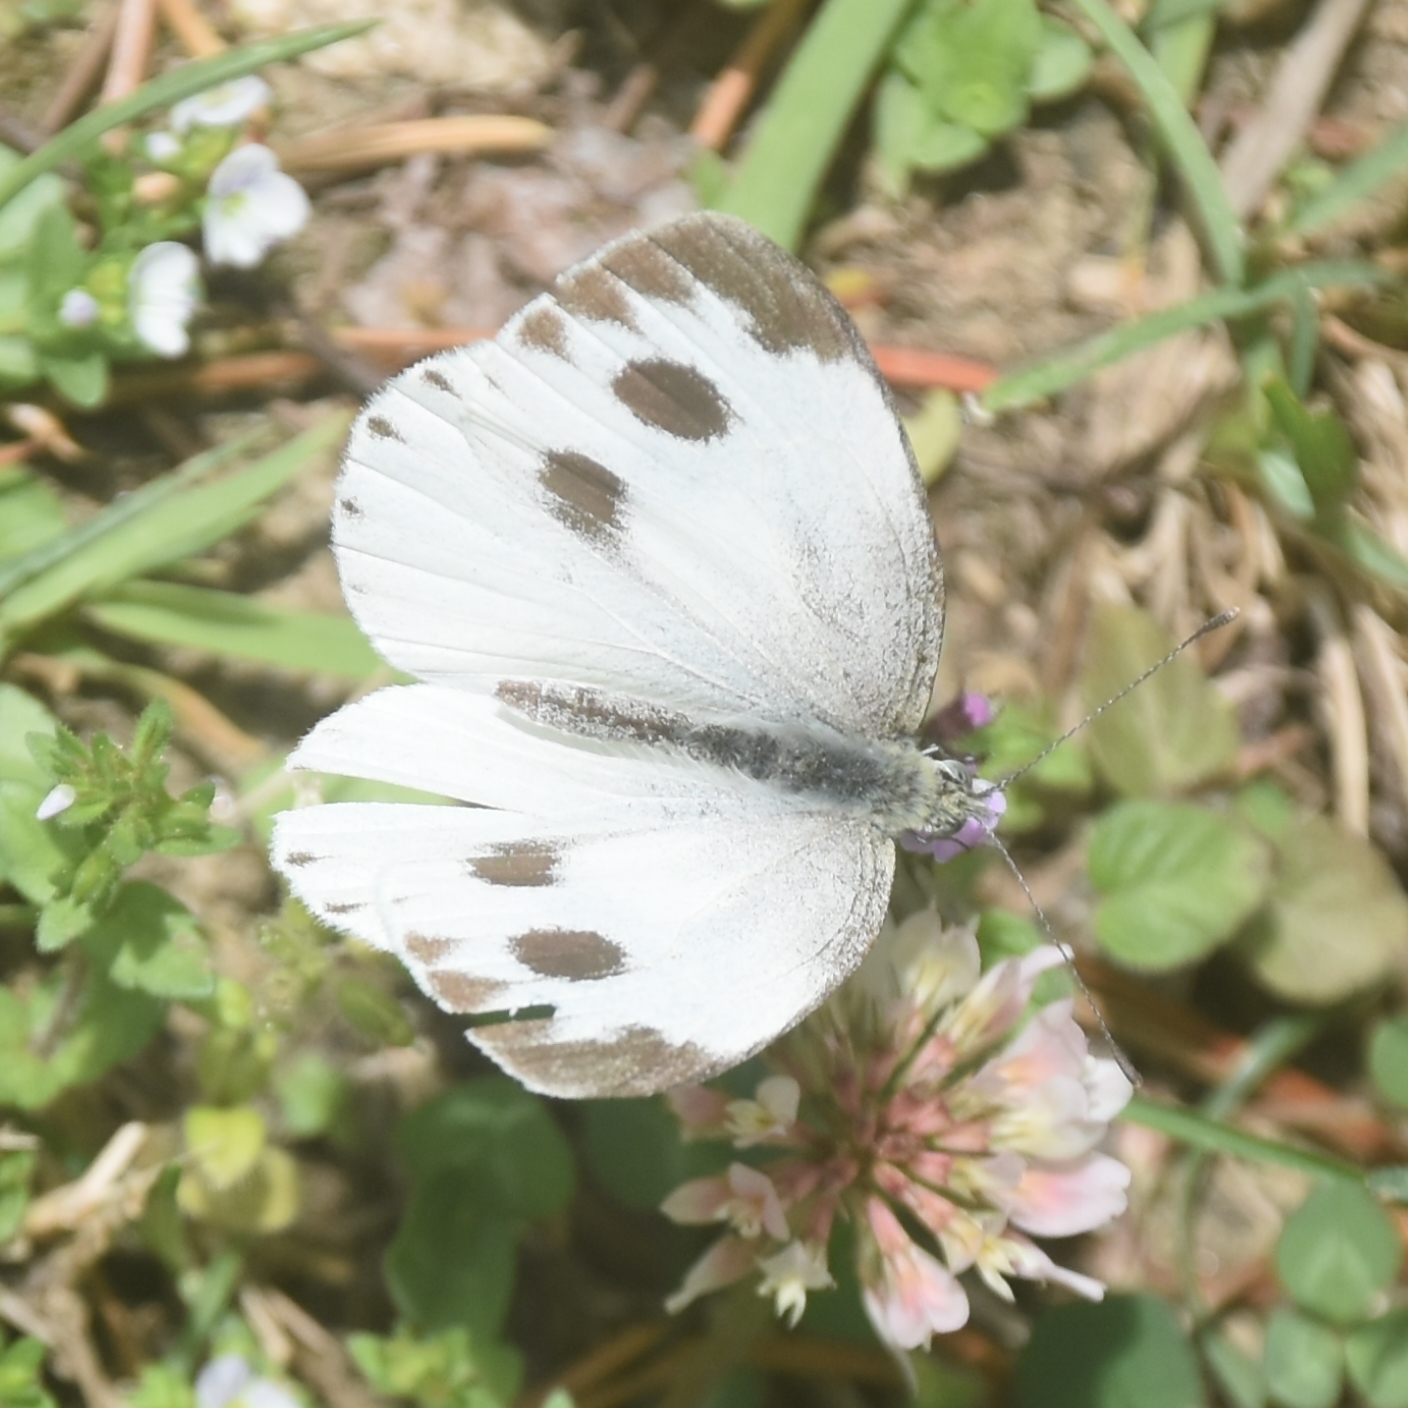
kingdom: Animalia
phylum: Arthropoda
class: Insecta
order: Lepidoptera
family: Pieridae
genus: Pieris
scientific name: Pieris canidia
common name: Indian cabbage white
